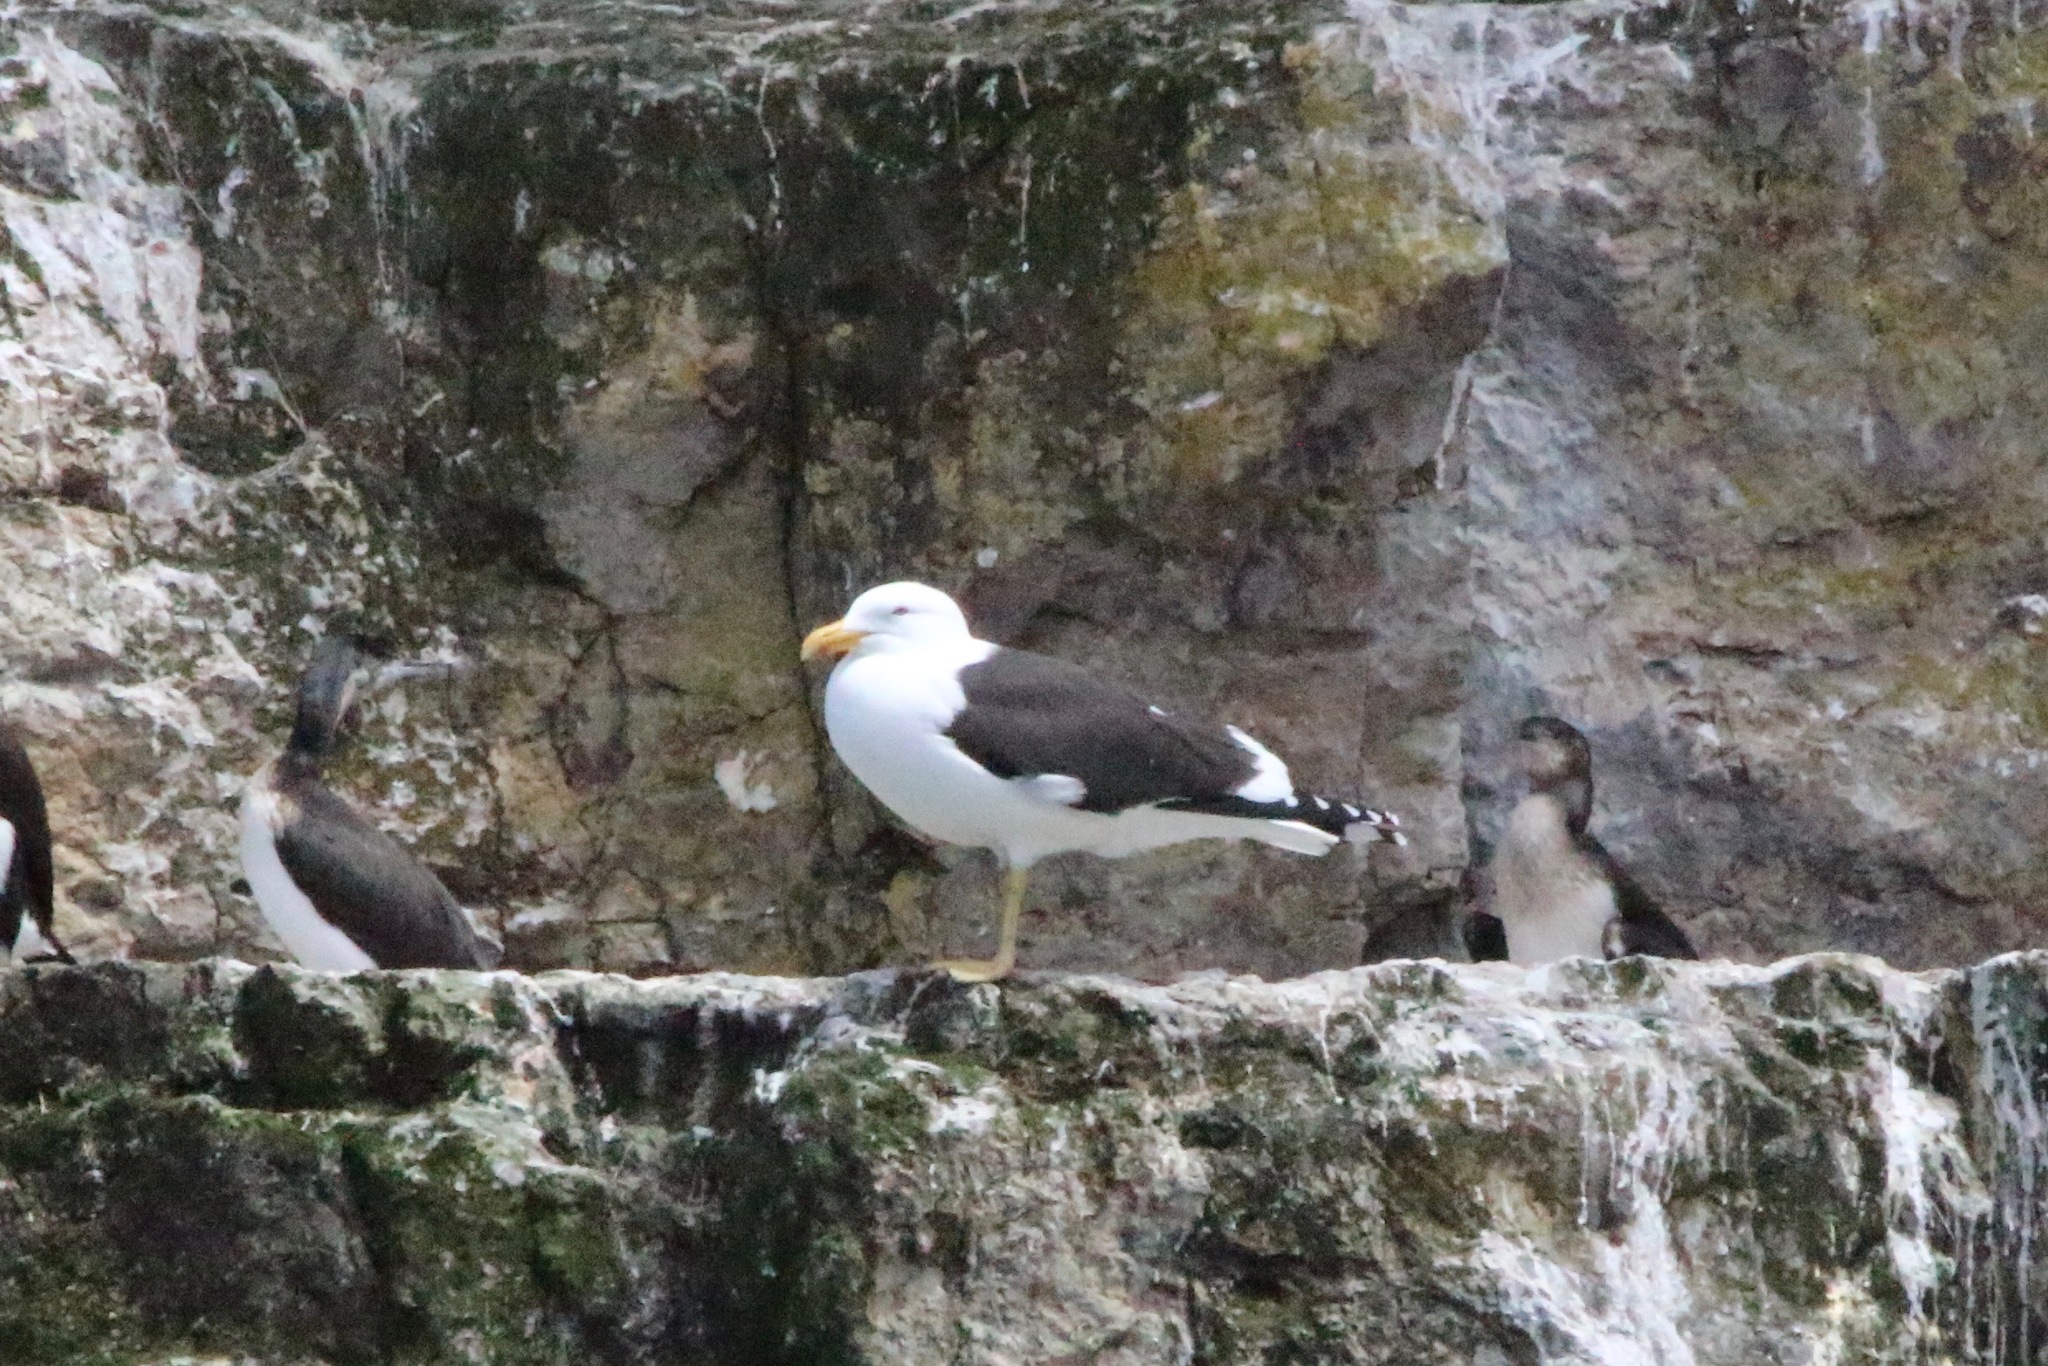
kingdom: Animalia
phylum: Chordata
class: Aves
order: Charadriiformes
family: Laridae
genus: Larus
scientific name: Larus dominicanus
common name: Kelp gull
